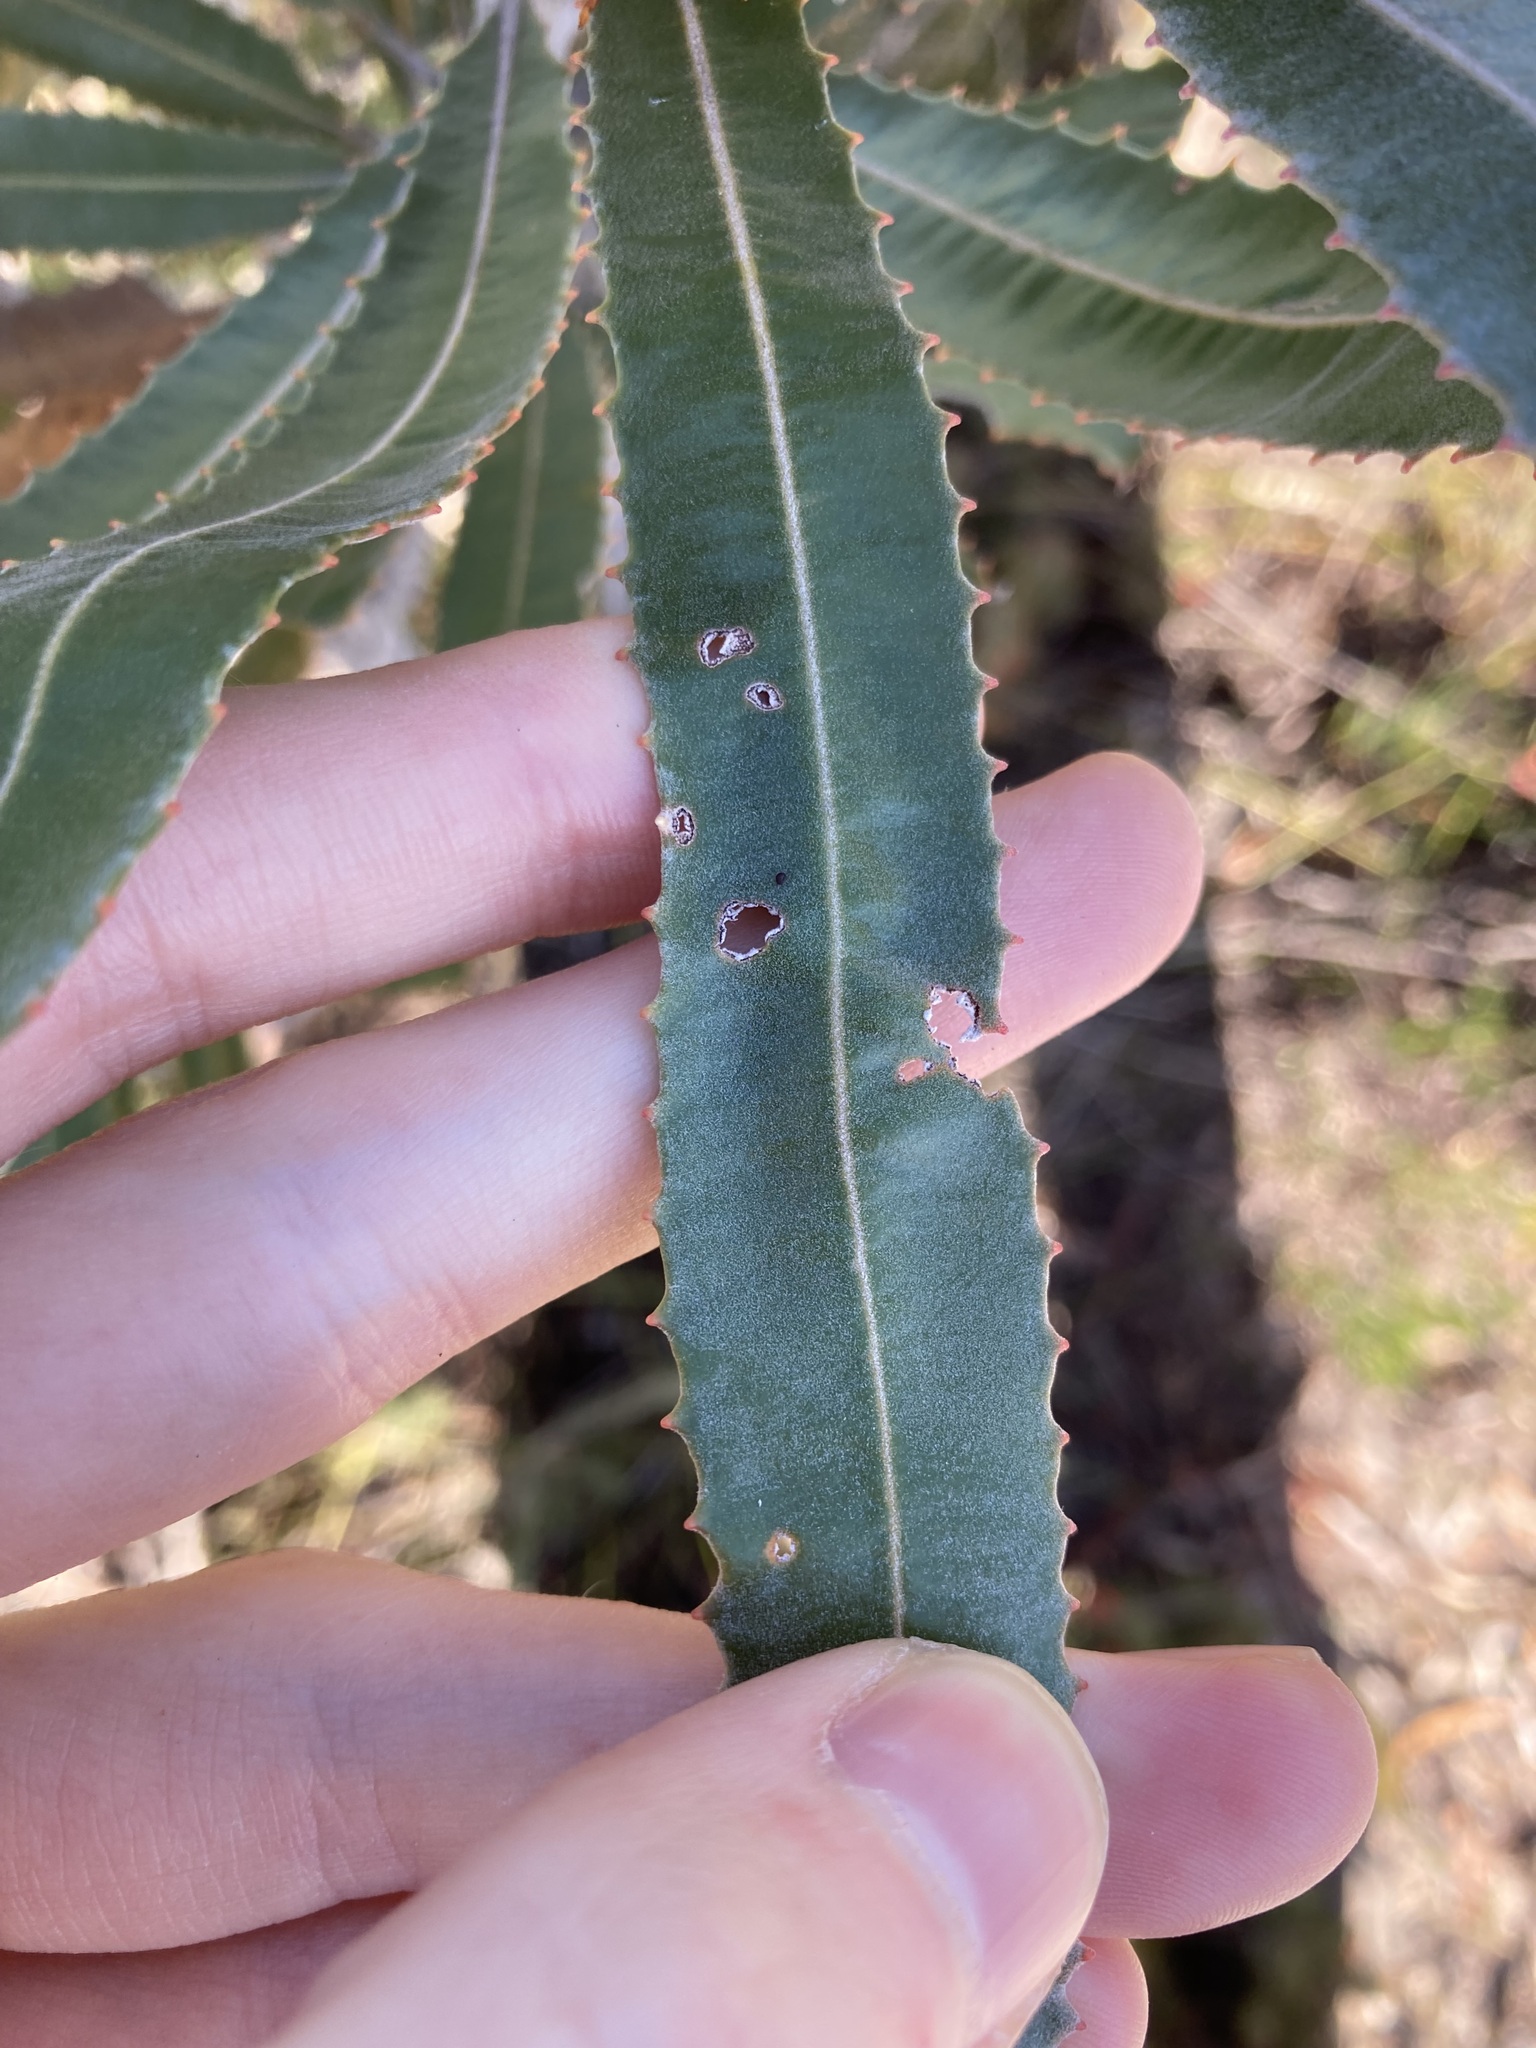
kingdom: Plantae
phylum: Tracheophyta
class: Magnoliopsida
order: Proteales
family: Proteaceae
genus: Banksia
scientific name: Banksia menziesii
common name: Menzie's banksia
